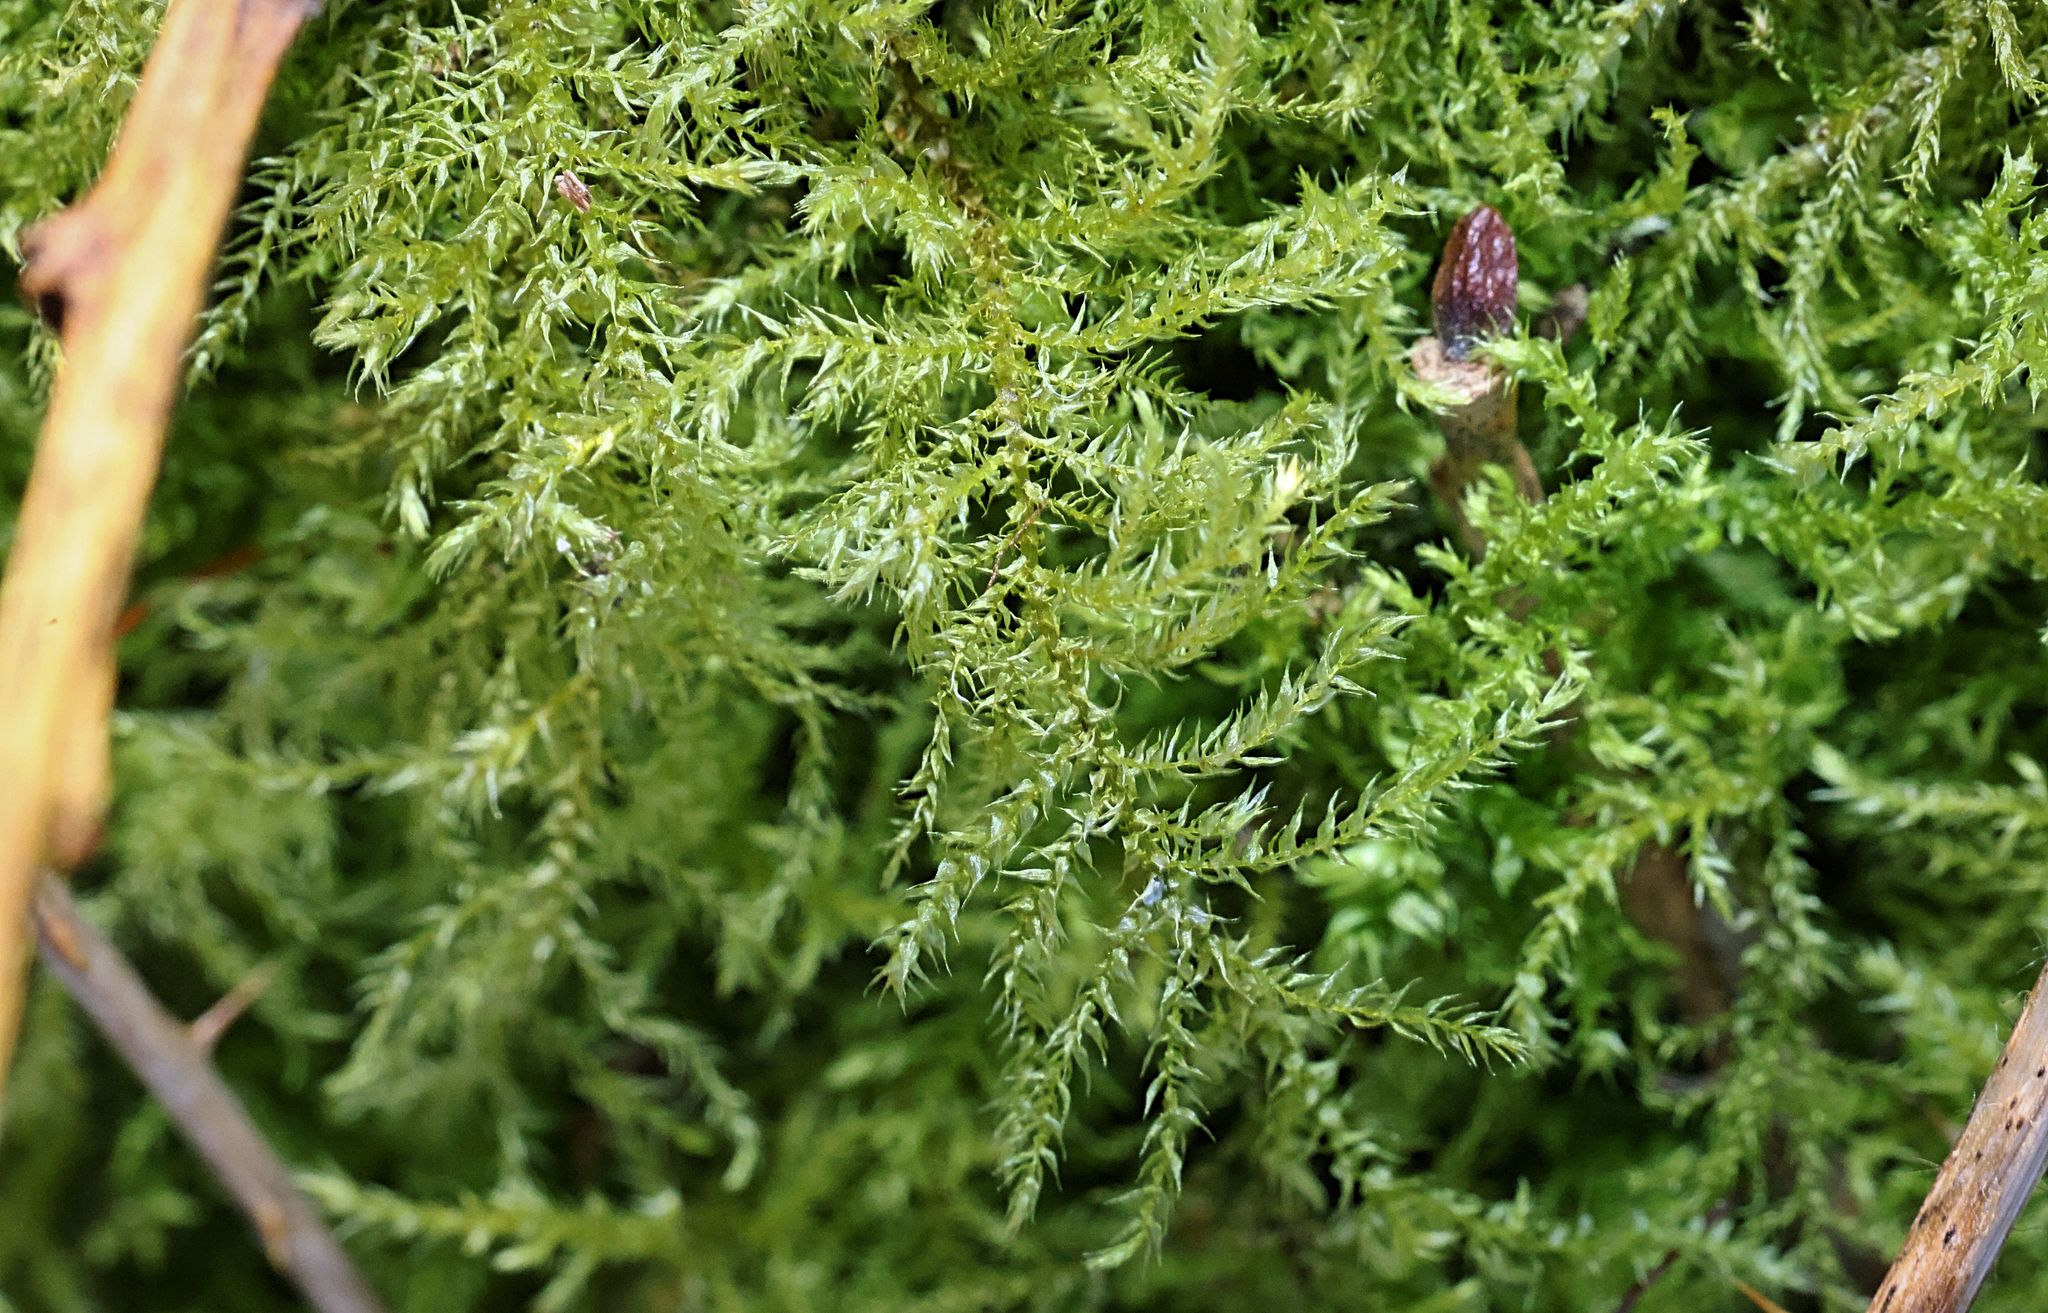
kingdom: Plantae
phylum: Bryophyta
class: Bryopsida
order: Hypnales
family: Brachytheciaceae
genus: Kindbergia
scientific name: Kindbergia praelonga
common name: Slender beaked moss
